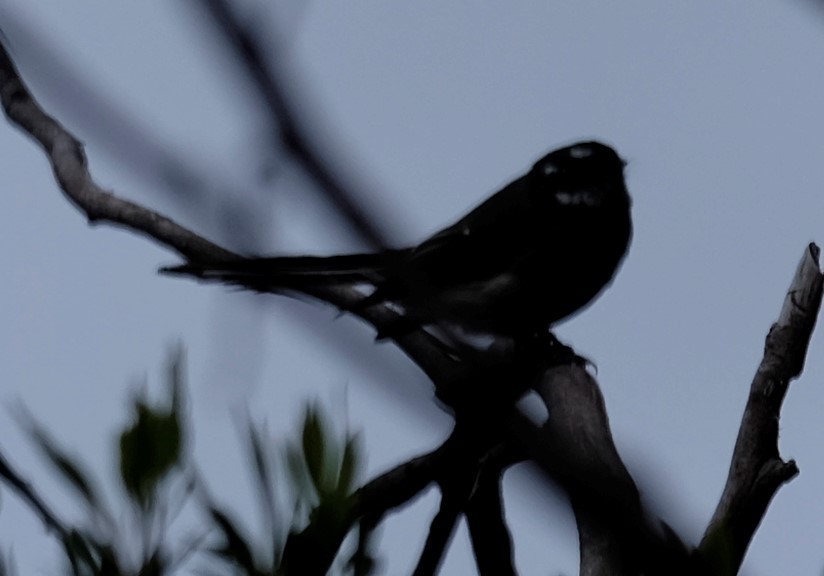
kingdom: Animalia
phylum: Chordata
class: Aves
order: Passeriformes
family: Rhipiduridae
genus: Rhipidura
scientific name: Rhipidura albiscapa
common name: Grey fantail
